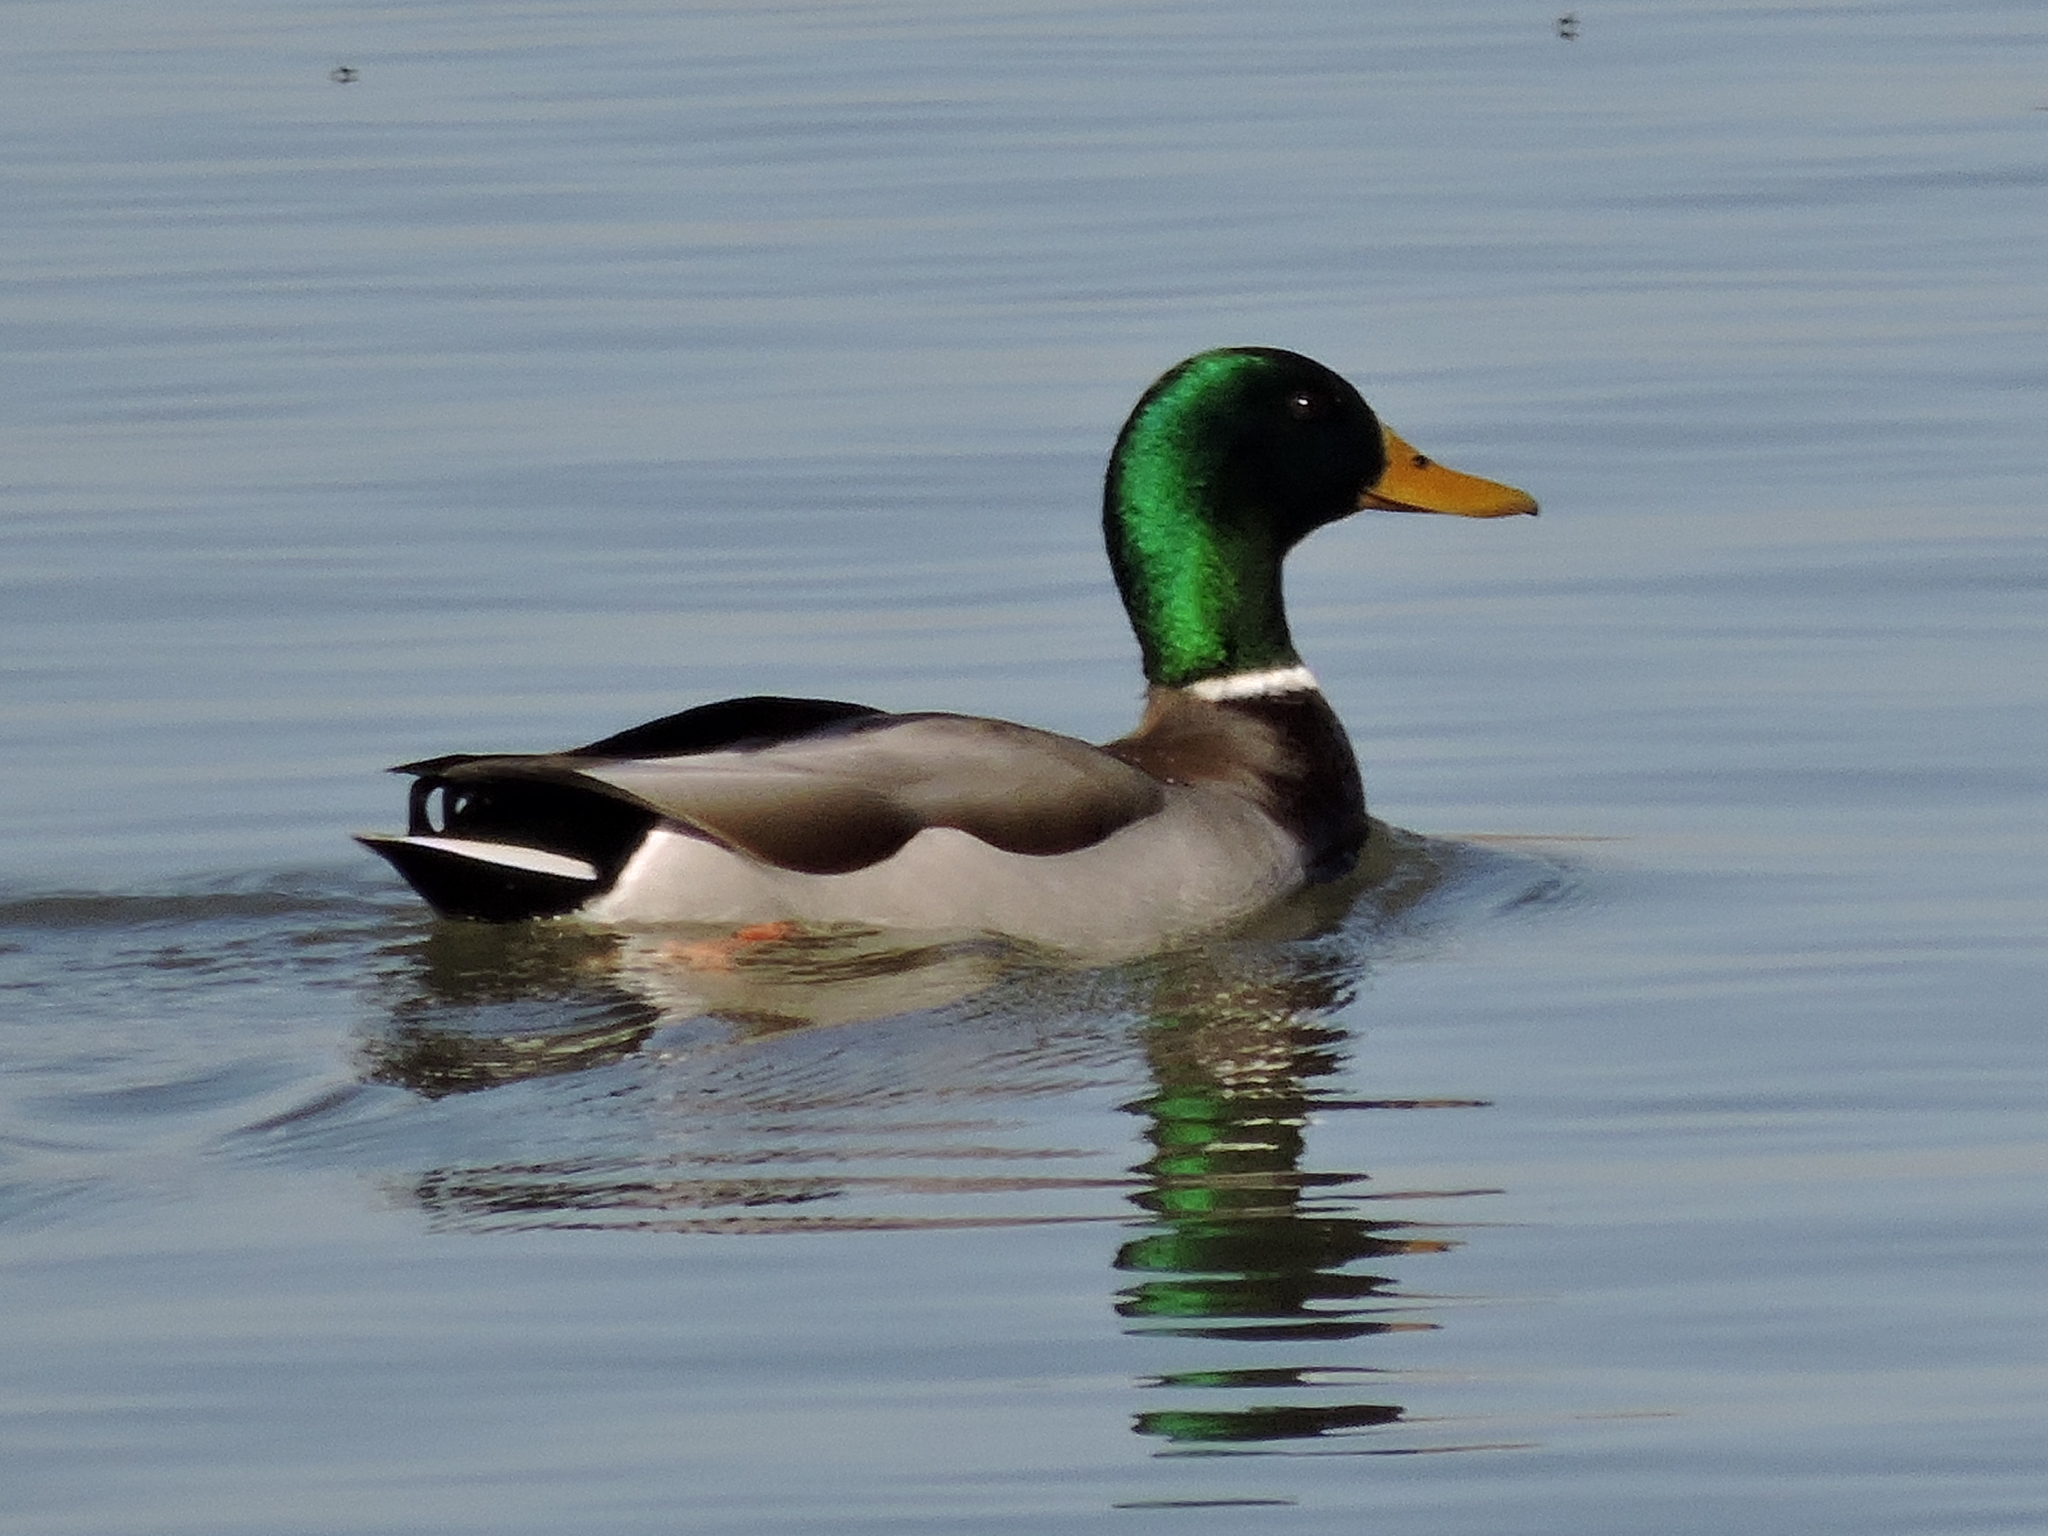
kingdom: Animalia
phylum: Chordata
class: Aves
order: Anseriformes
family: Anatidae
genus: Anas
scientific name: Anas platyrhynchos
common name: Mallard
